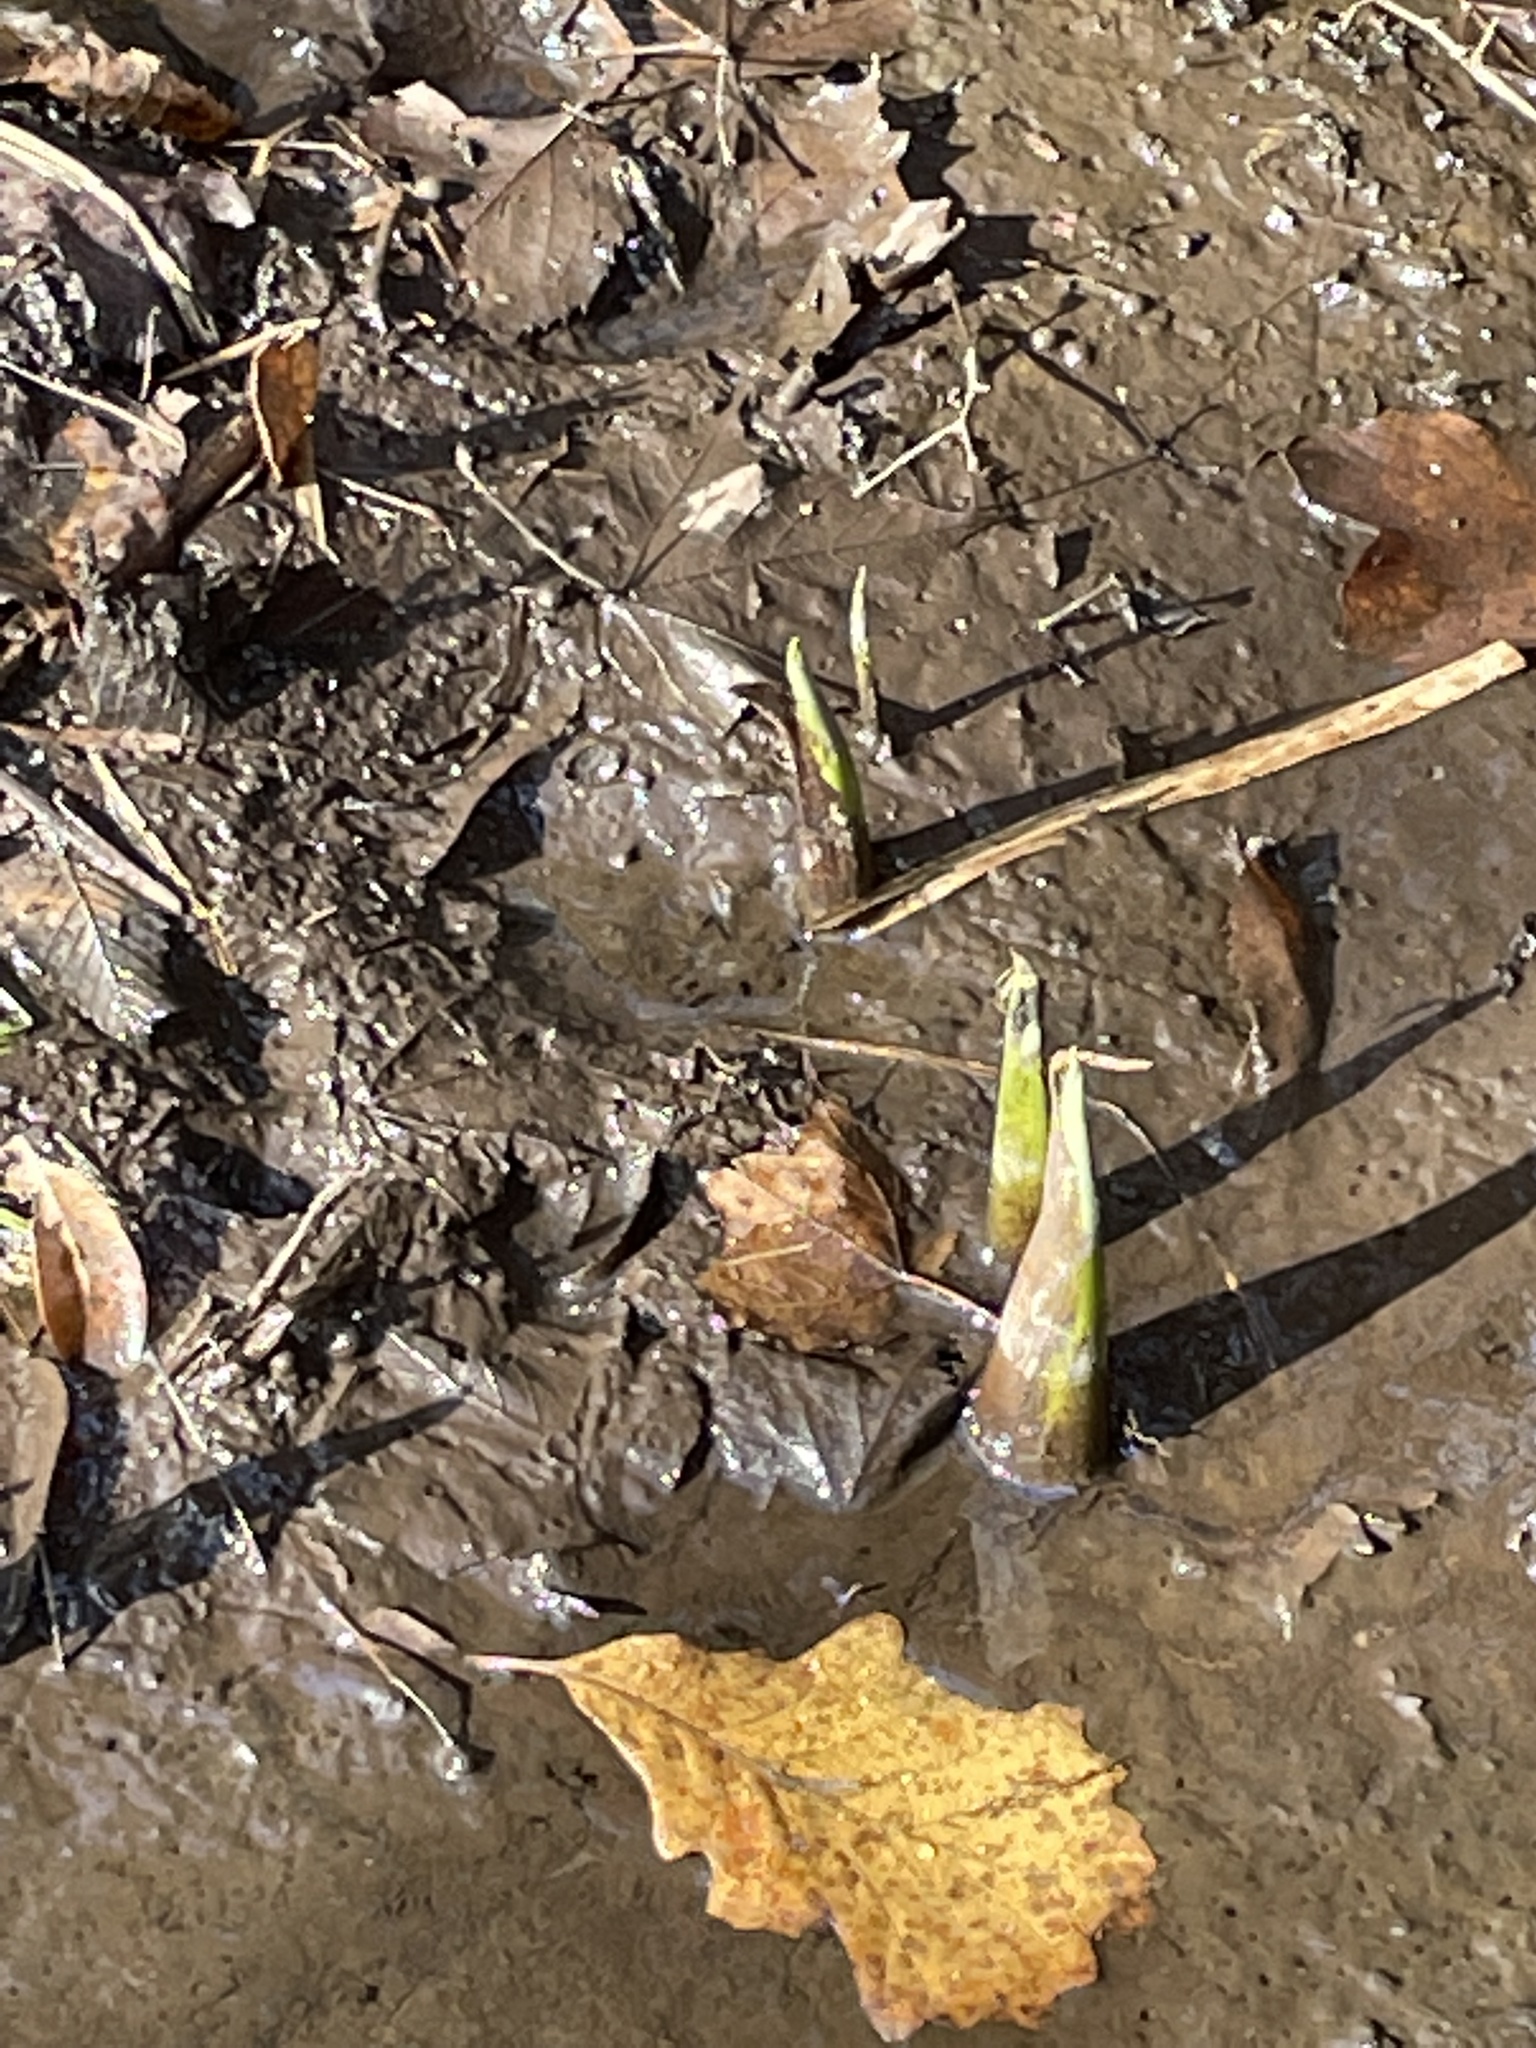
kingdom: Plantae
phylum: Tracheophyta
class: Liliopsida
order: Alismatales
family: Araceae
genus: Symplocarpus
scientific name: Symplocarpus foetidus
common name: Eastern skunk cabbage
